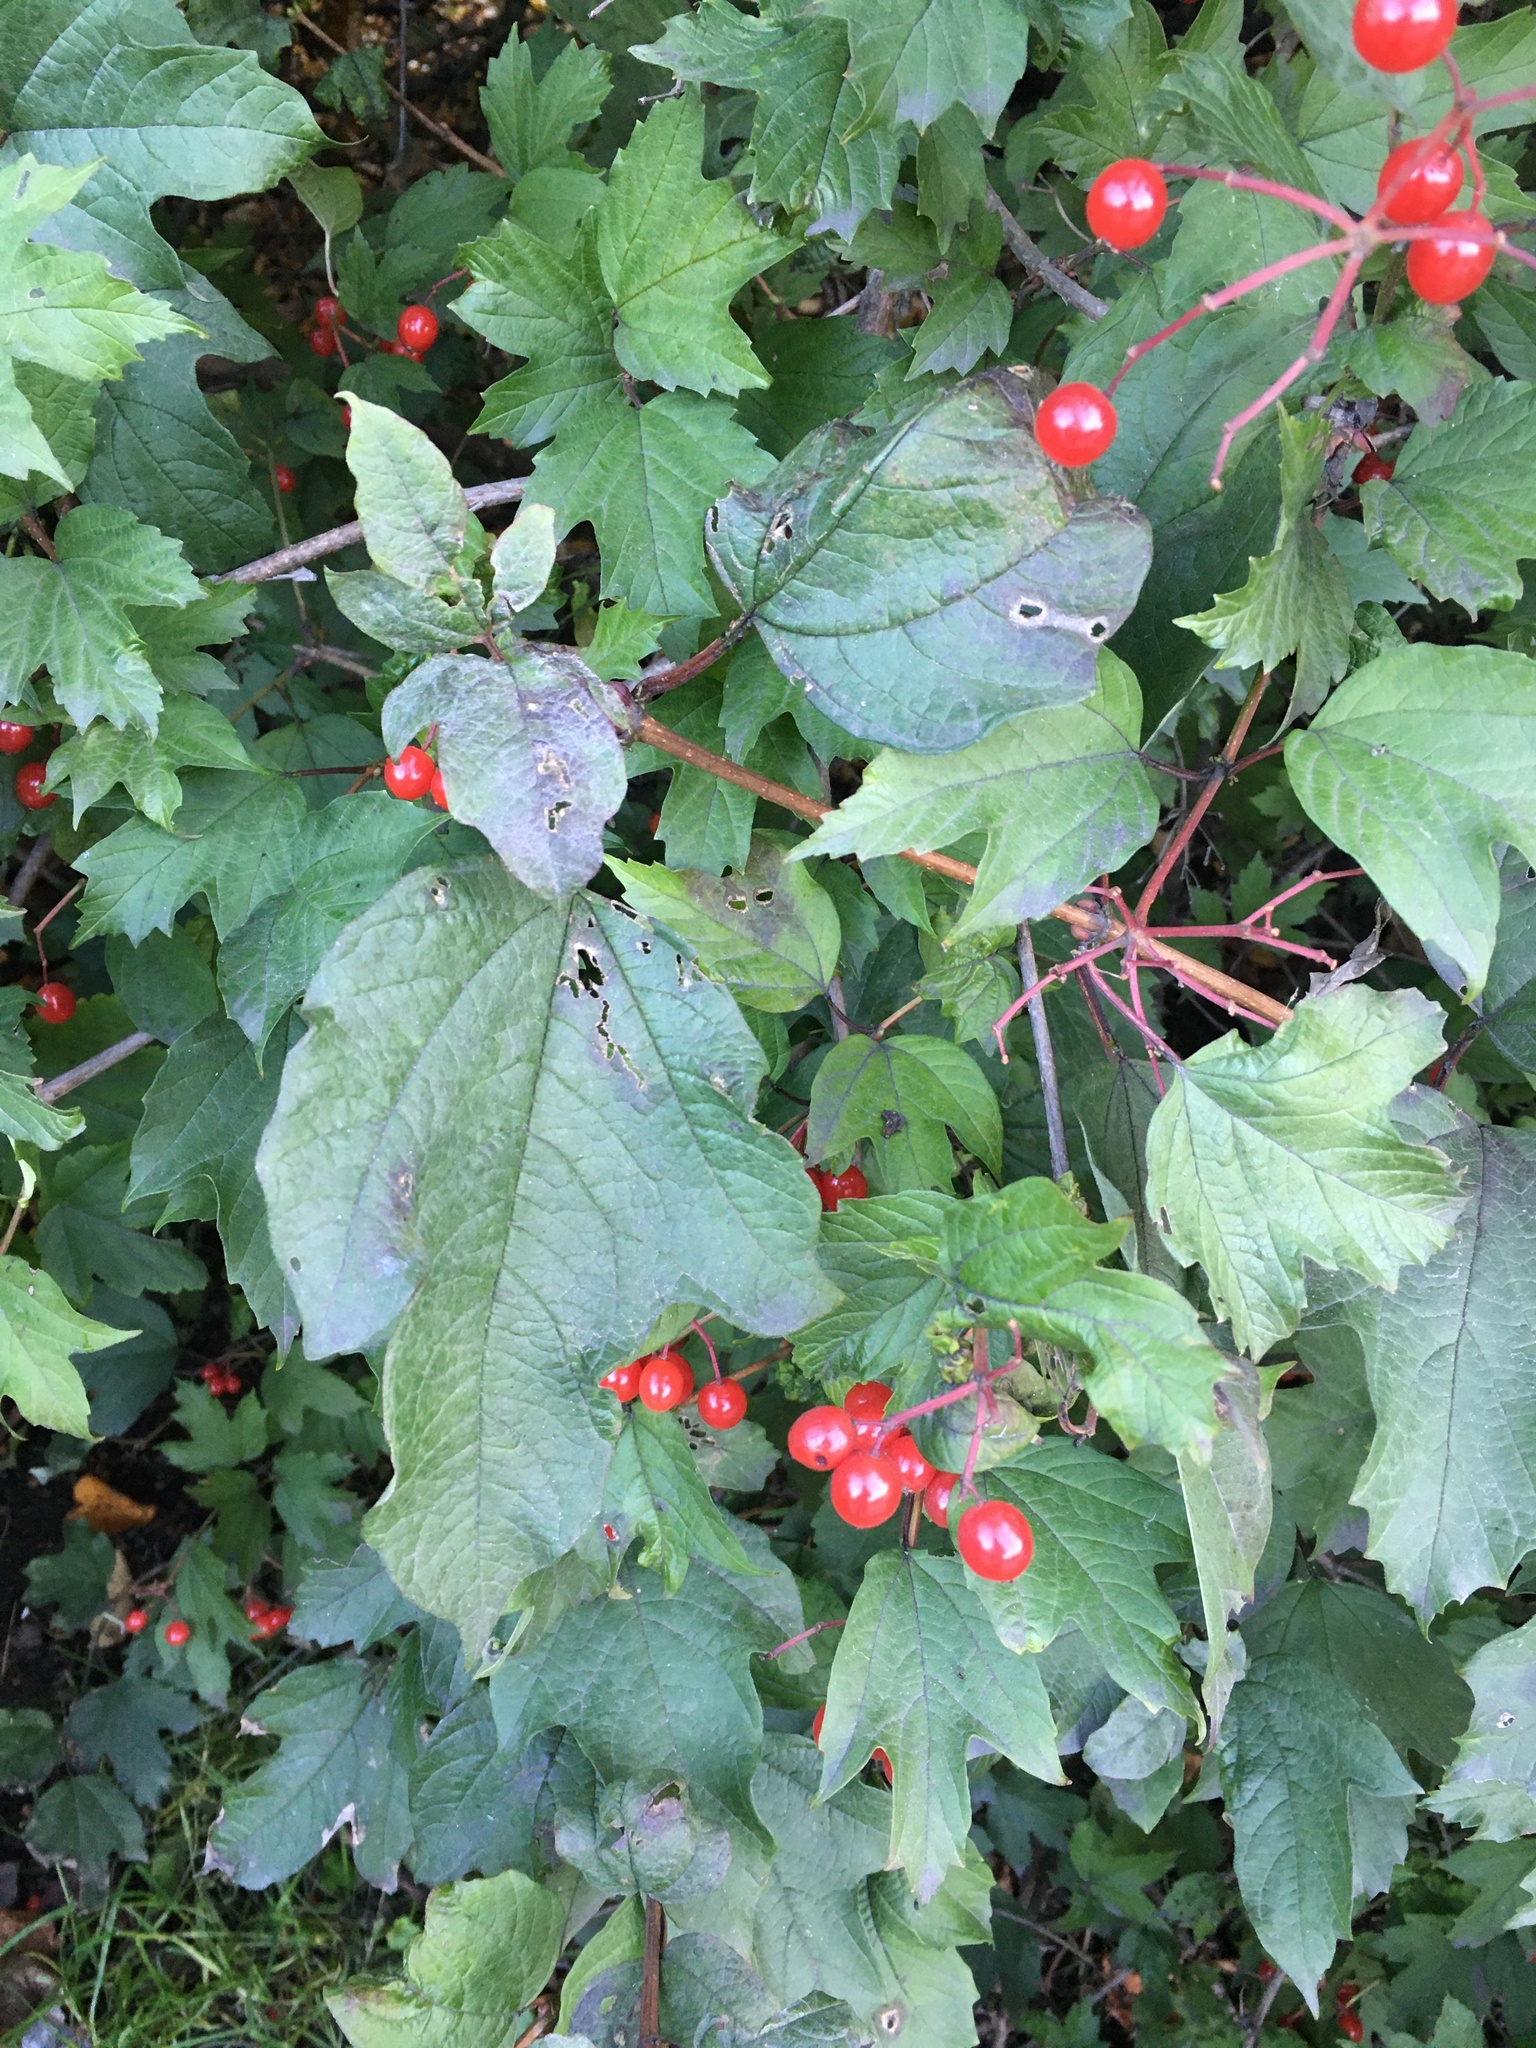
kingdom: Plantae
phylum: Tracheophyta
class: Magnoliopsida
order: Dipsacales
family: Viburnaceae
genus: Viburnum
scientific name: Viburnum opulus
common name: Guelder-rose
